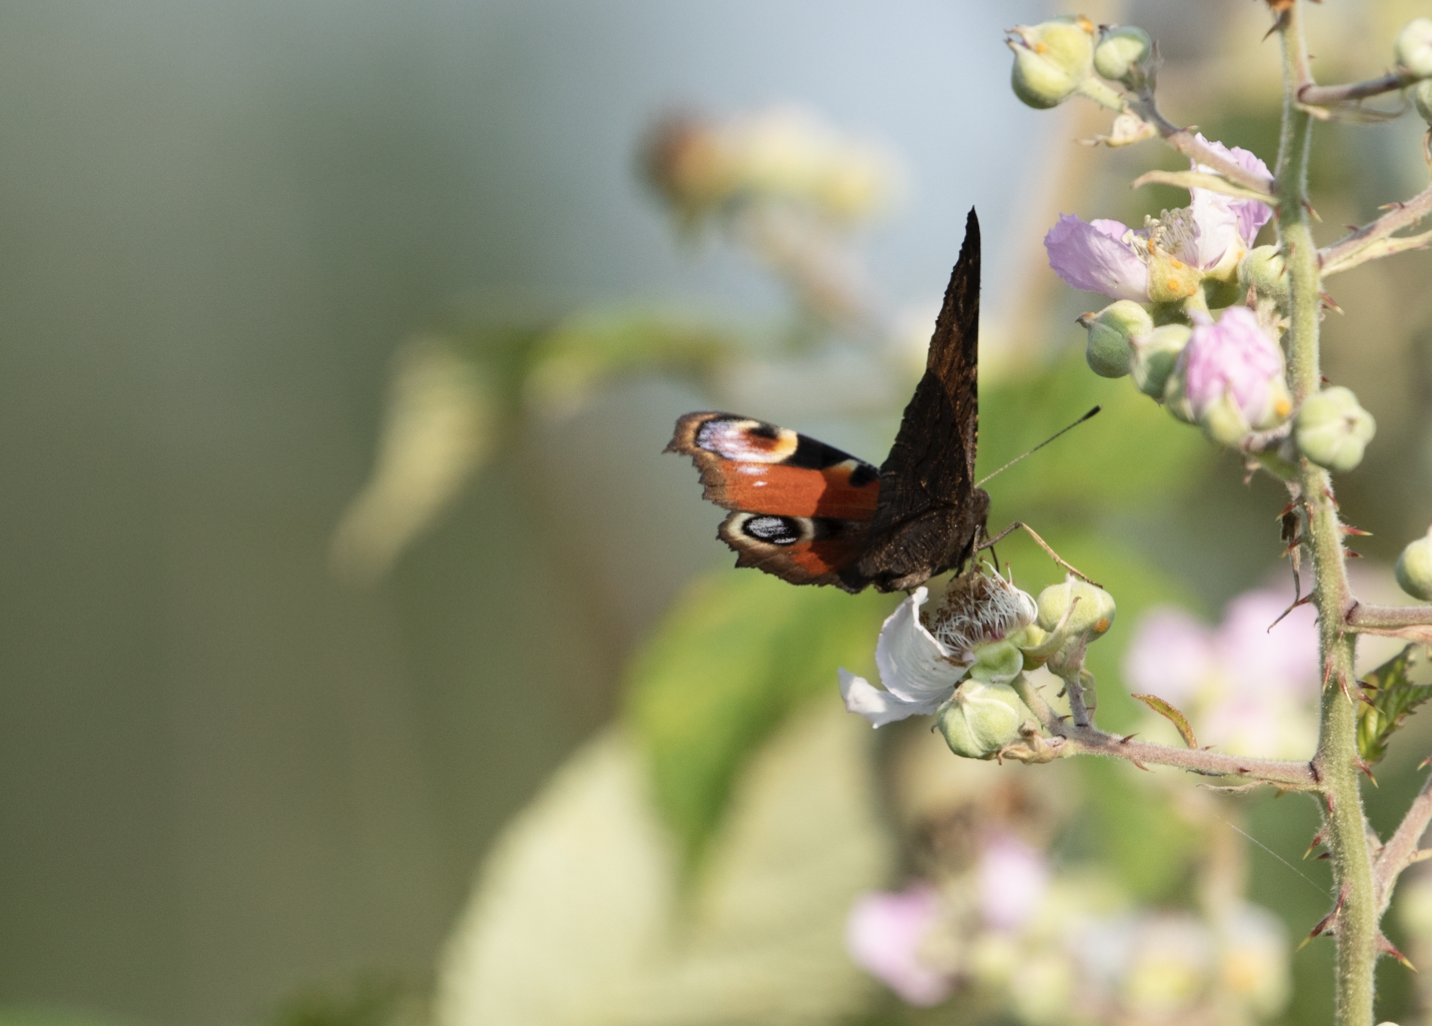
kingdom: Animalia
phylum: Arthropoda
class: Insecta
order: Lepidoptera
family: Nymphalidae
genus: Aglais
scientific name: Aglais io
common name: Peacock
